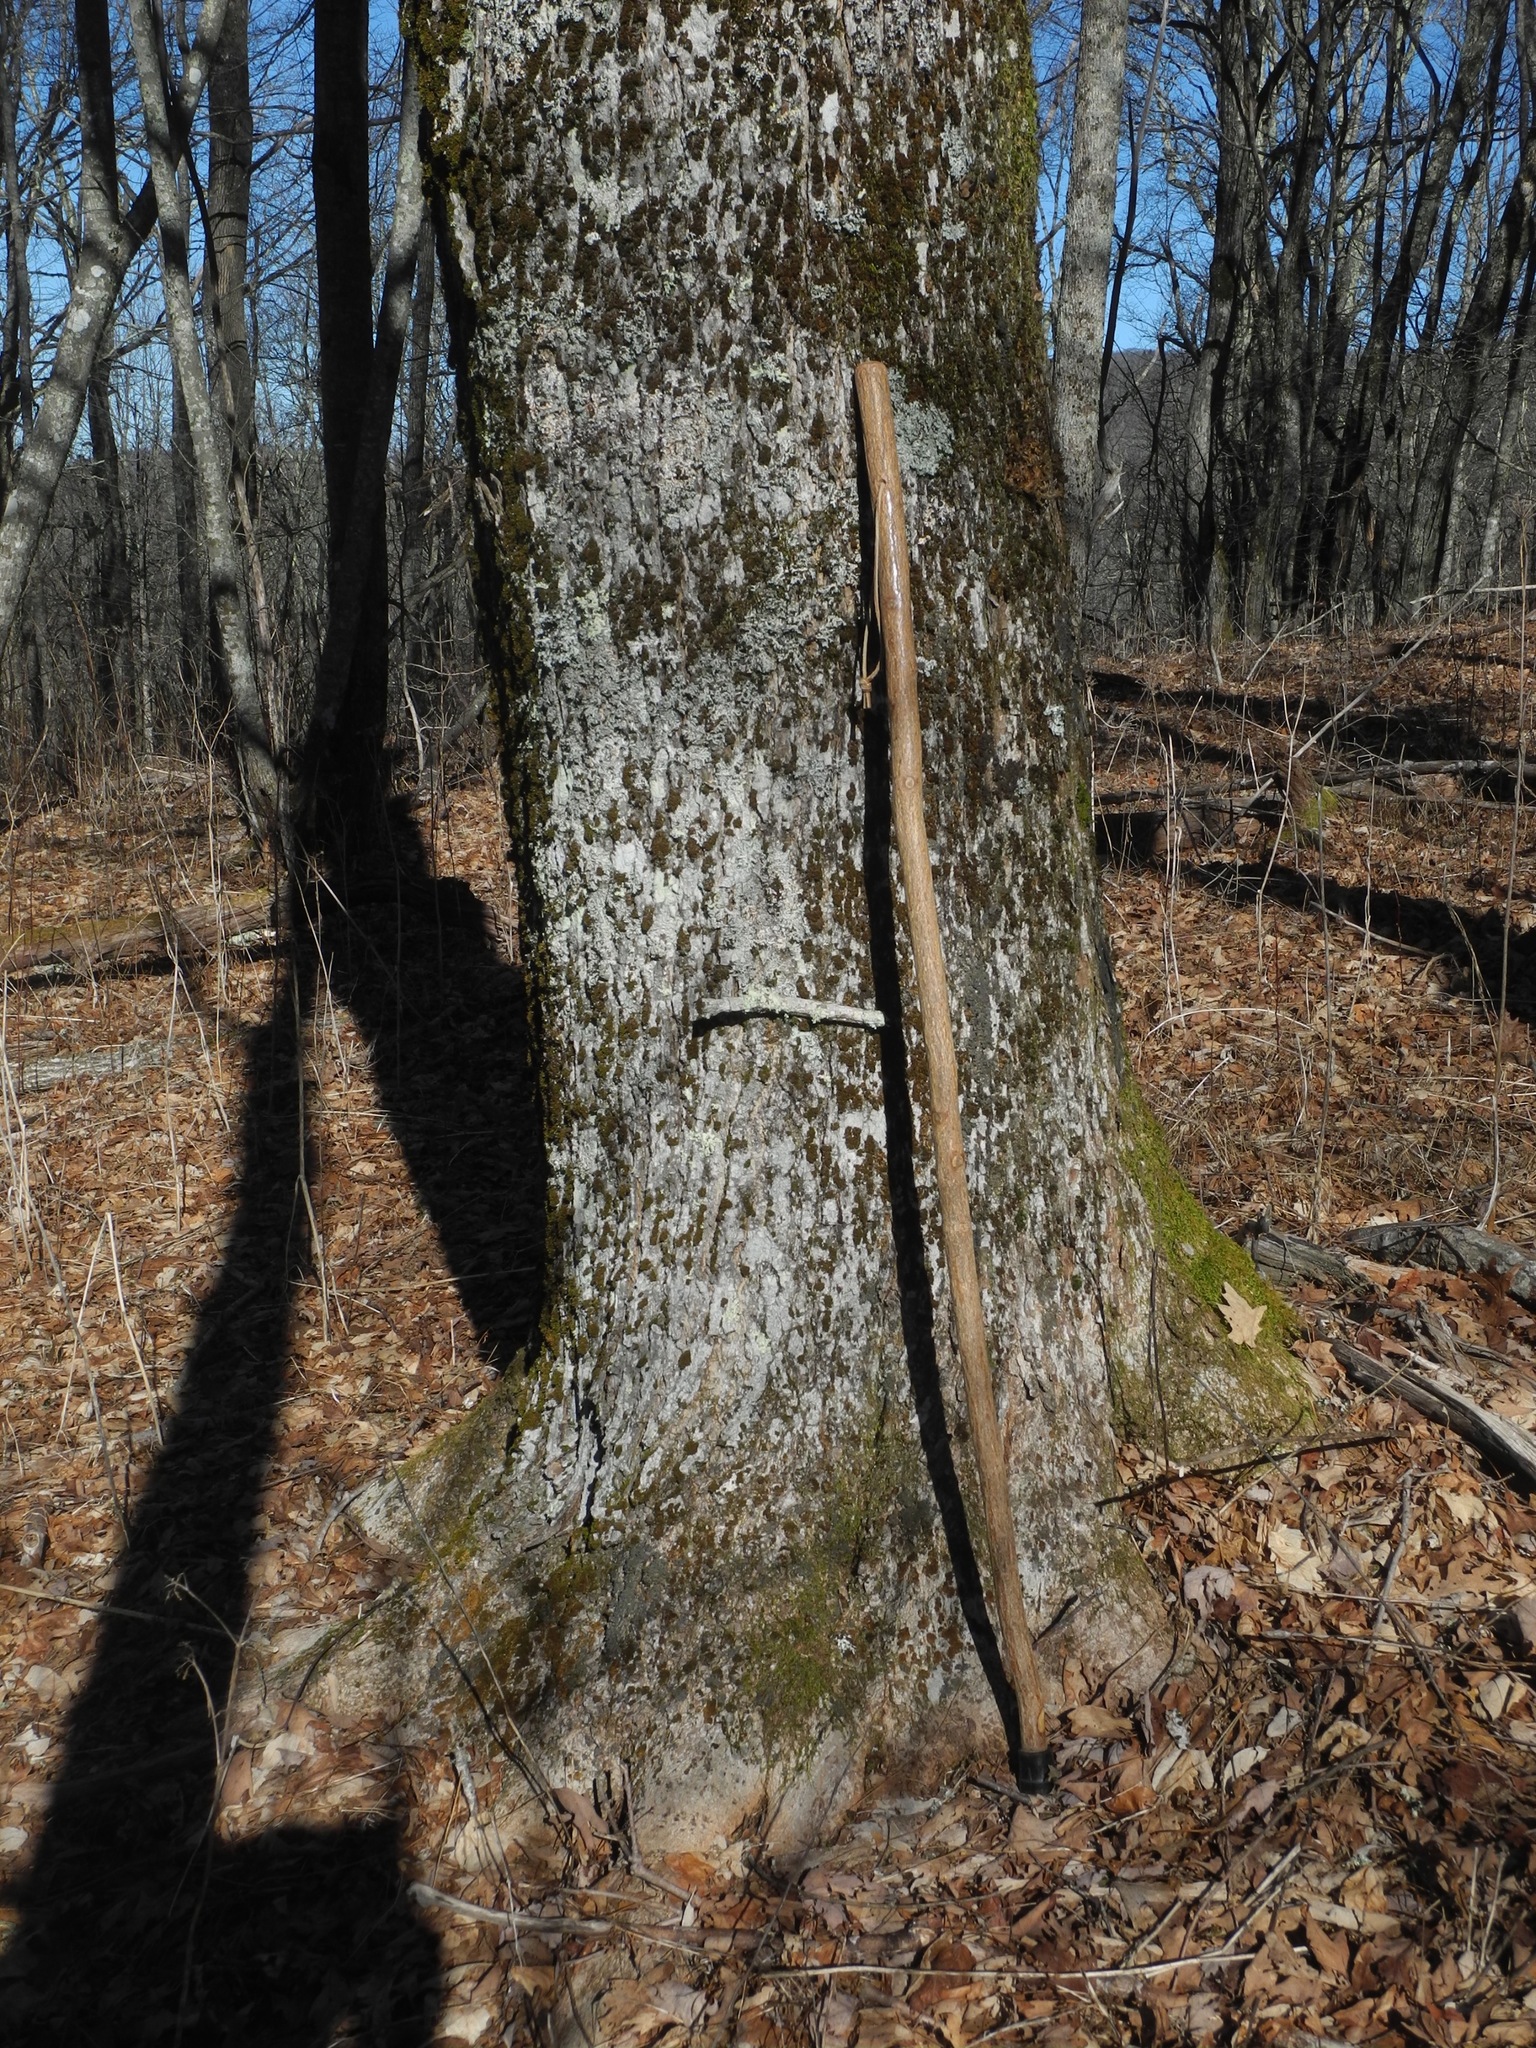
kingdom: Plantae
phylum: Tracheophyta
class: Magnoliopsida
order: Sapindales
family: Sapindaceae
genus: Acer
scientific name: Acer saccharum
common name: Sugar maple
